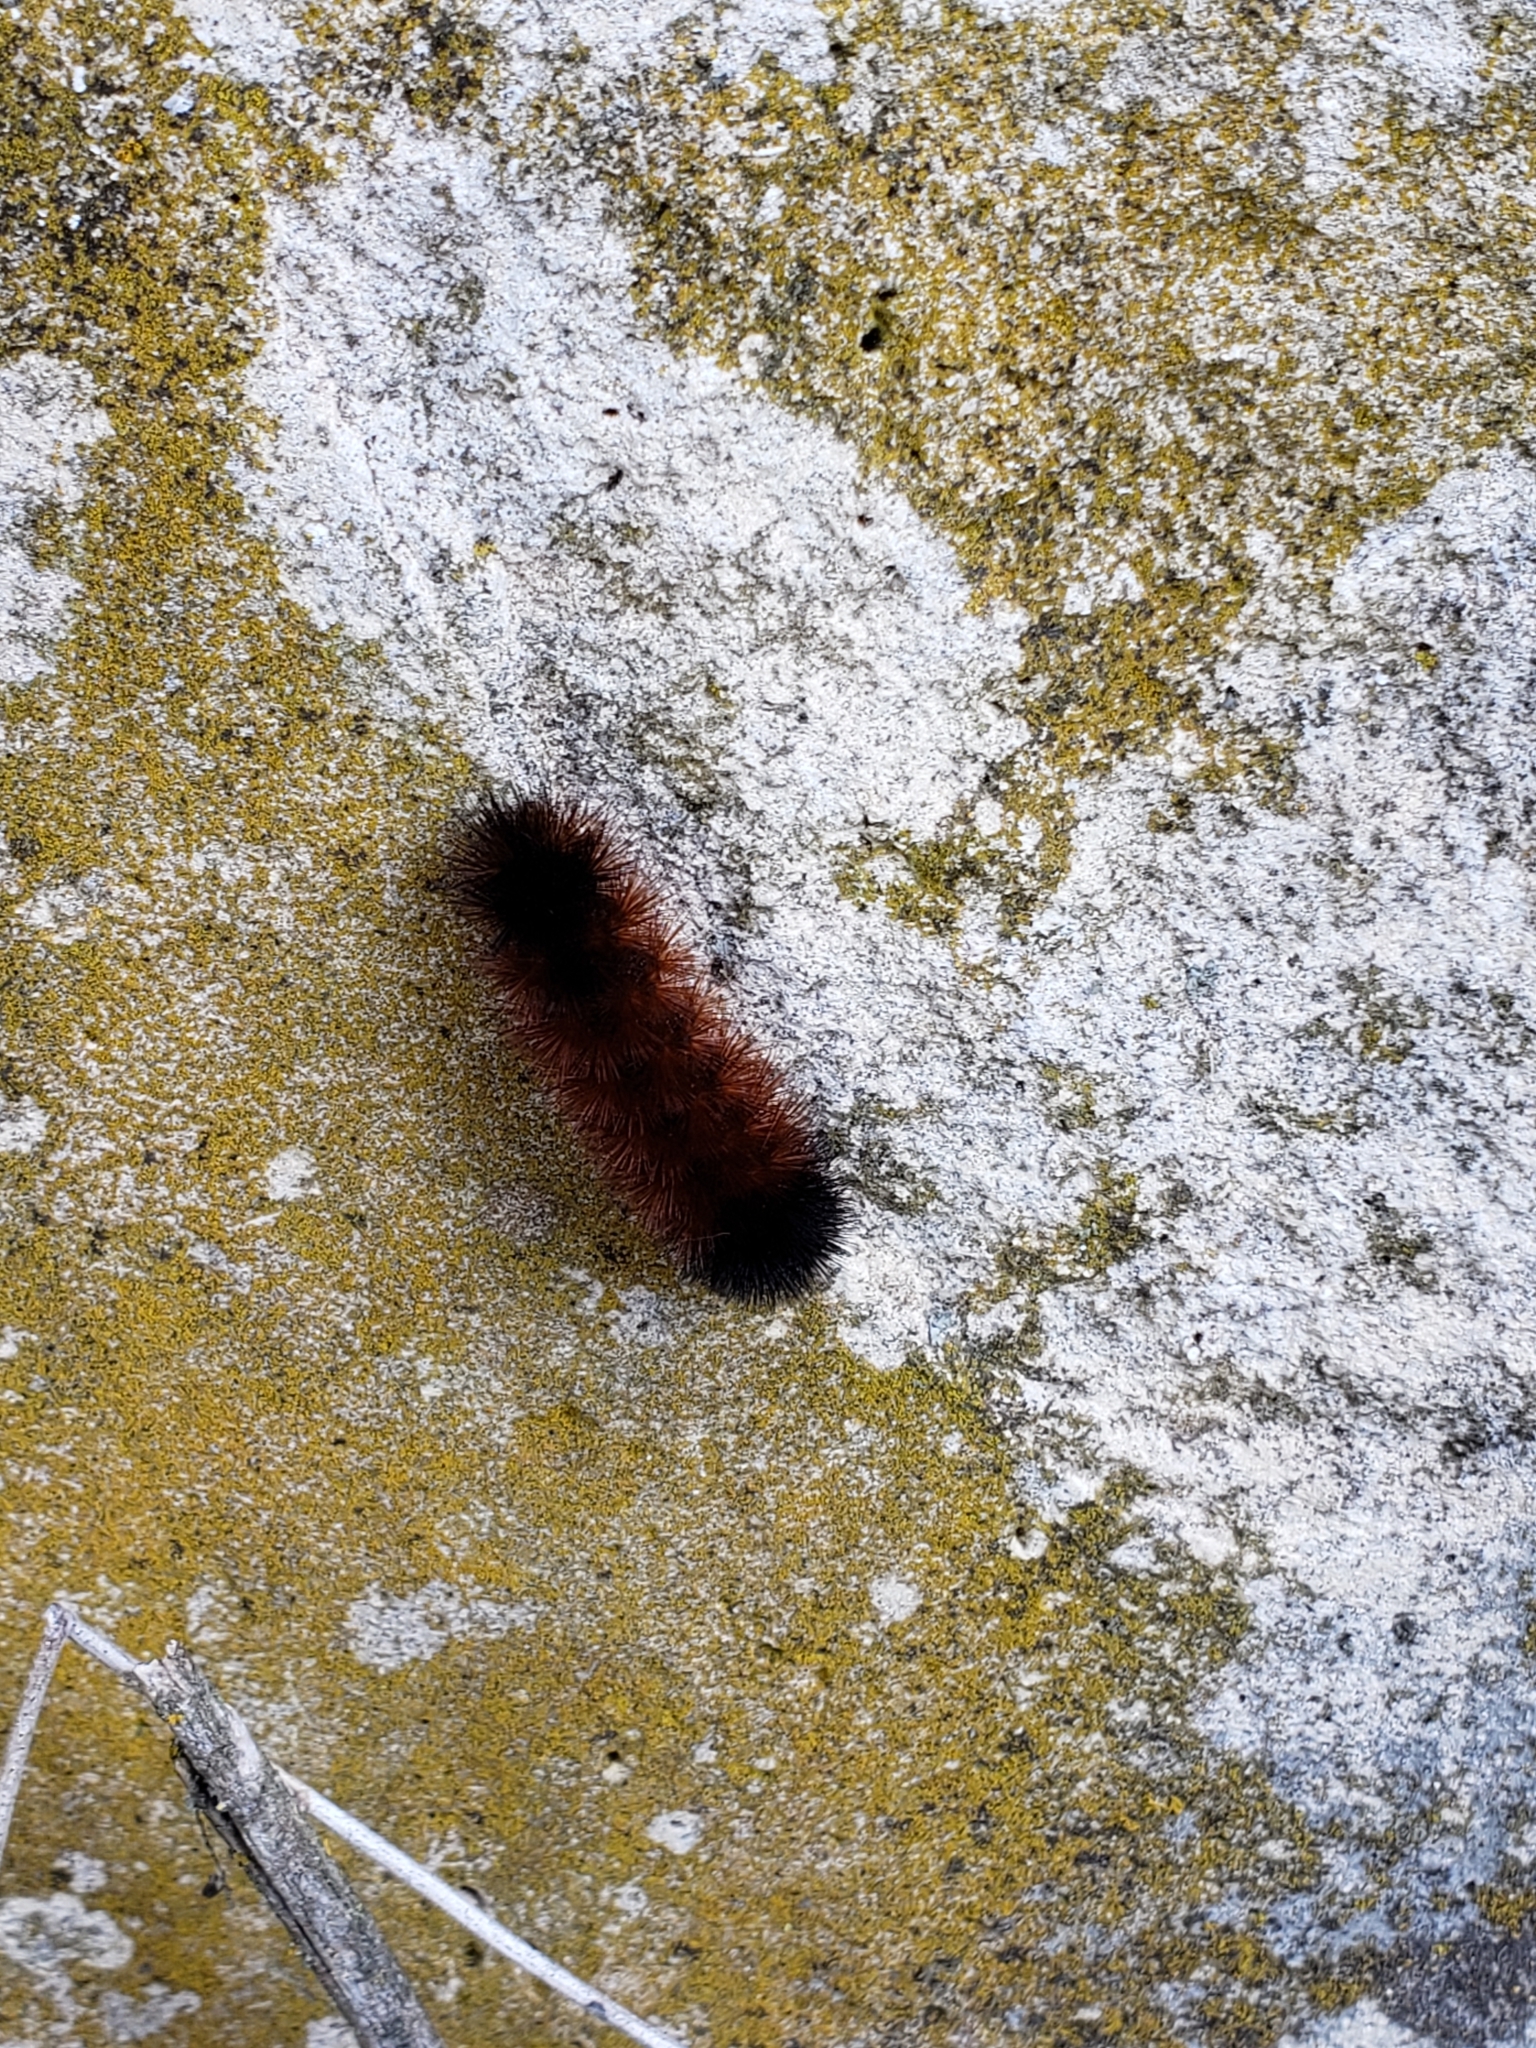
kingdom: Animalia
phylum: Arthropoda
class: Insecta
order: Lepidoptera
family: Erebidae
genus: Pyrrharctia
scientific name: Pyrrharctia isabella
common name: Isabella tiger moth
